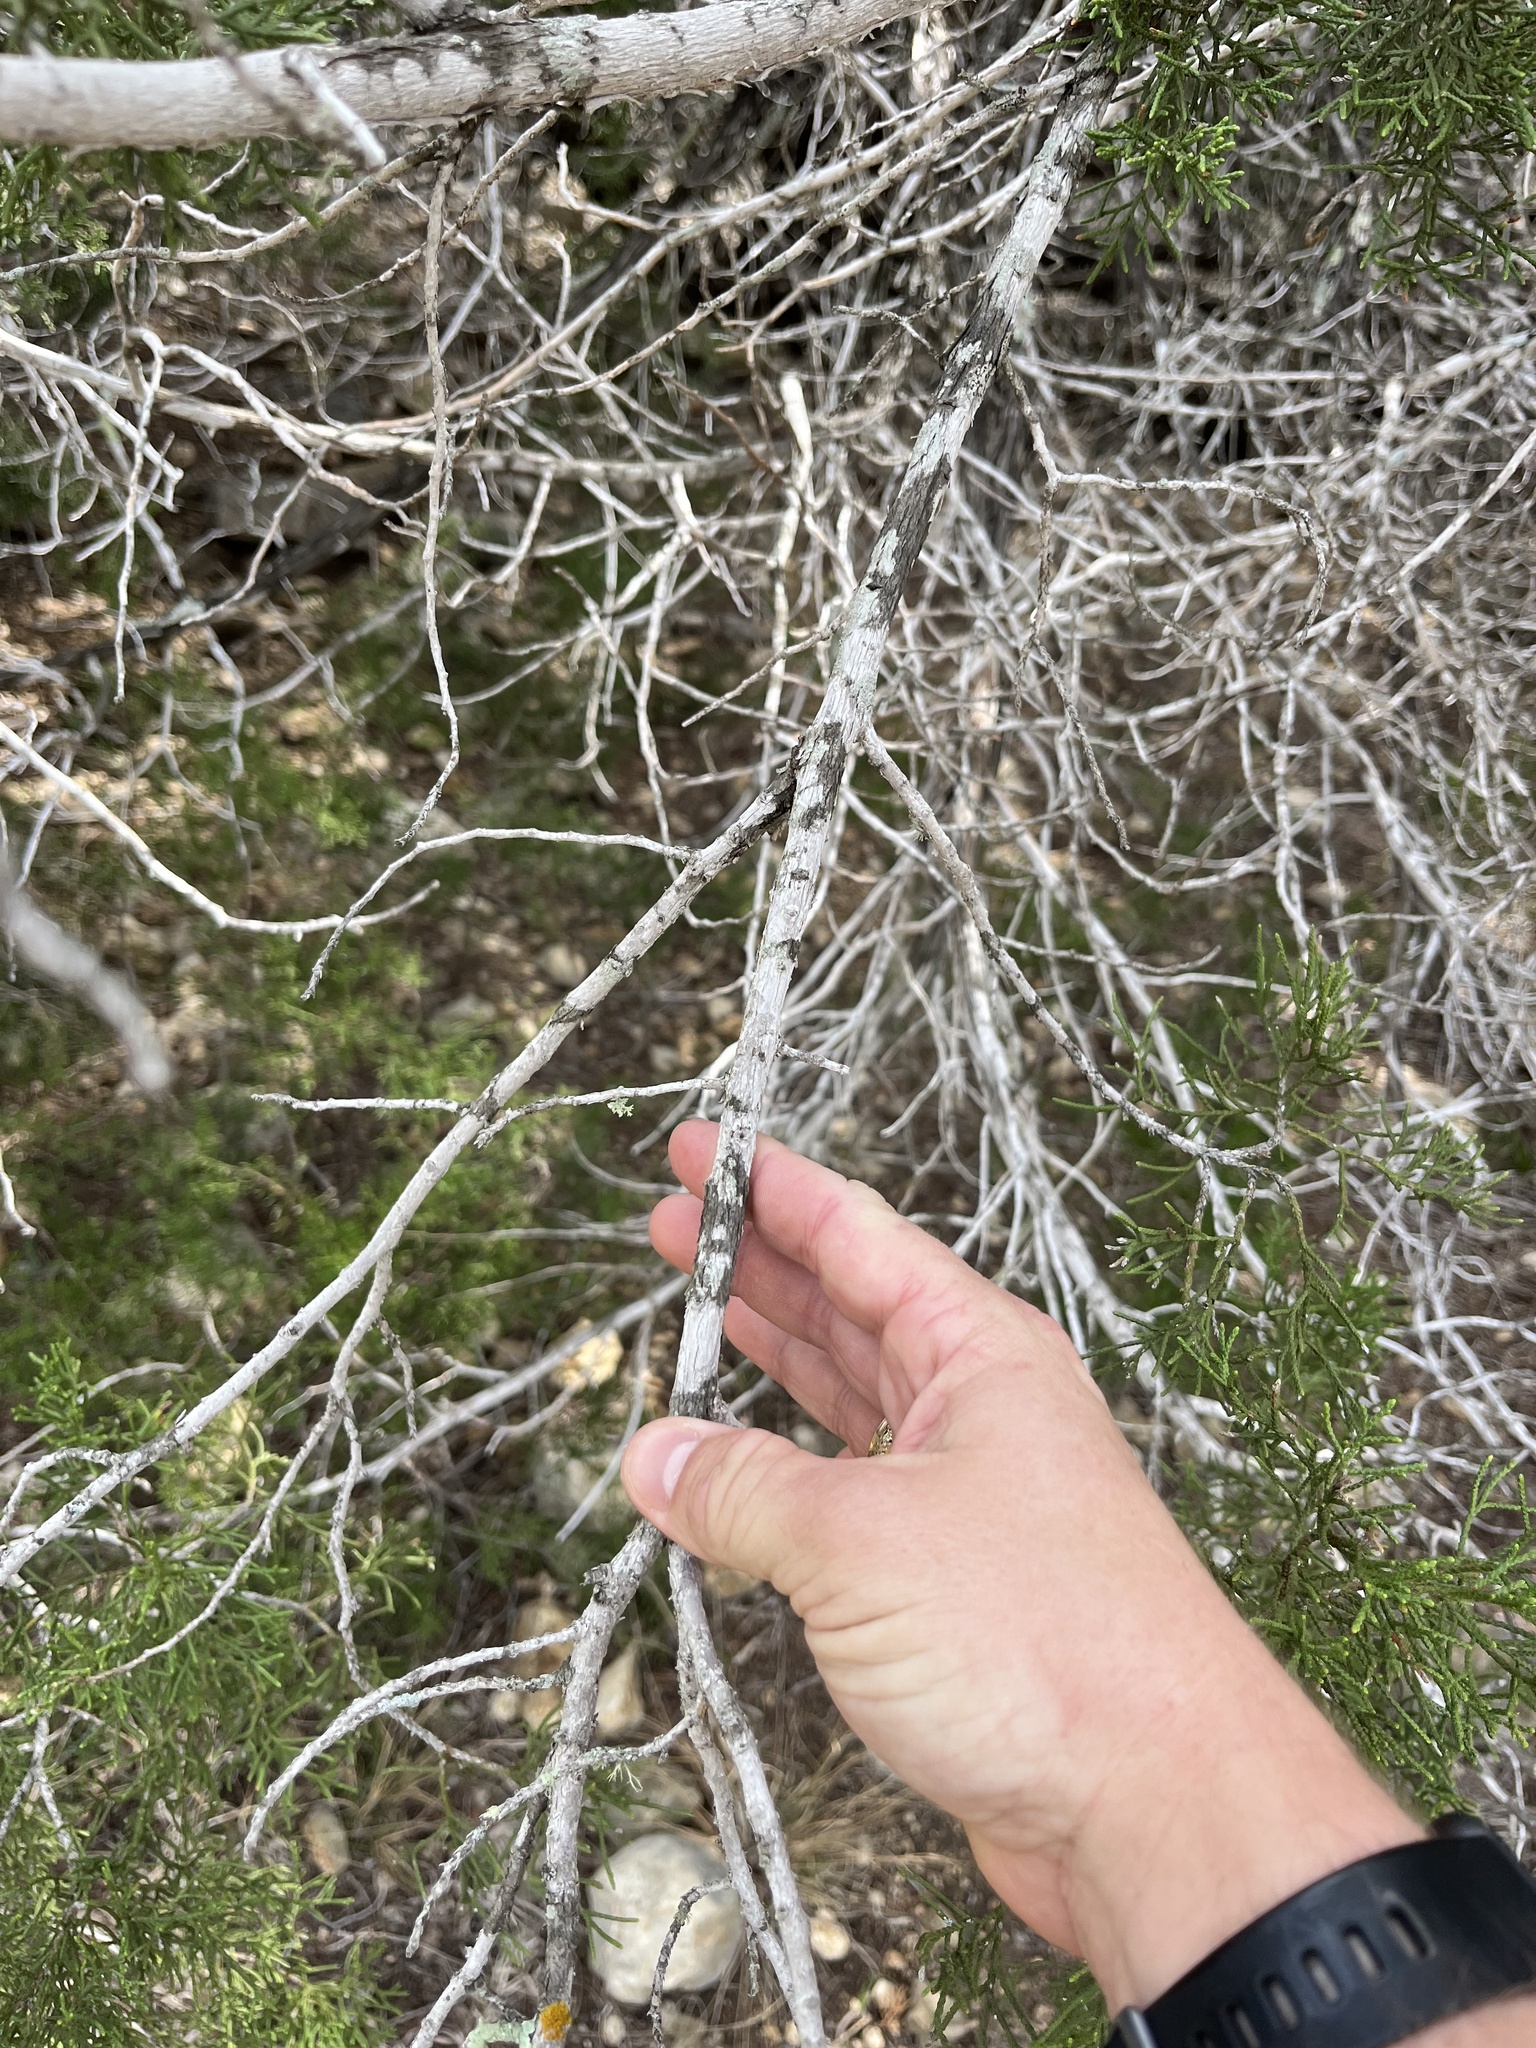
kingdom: Plantae
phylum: Tracheophyta
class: Pinopsida
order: Pinales
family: Cupressaceae
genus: Juniperus
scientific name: Juniperus ashei
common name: Mexican juniper
